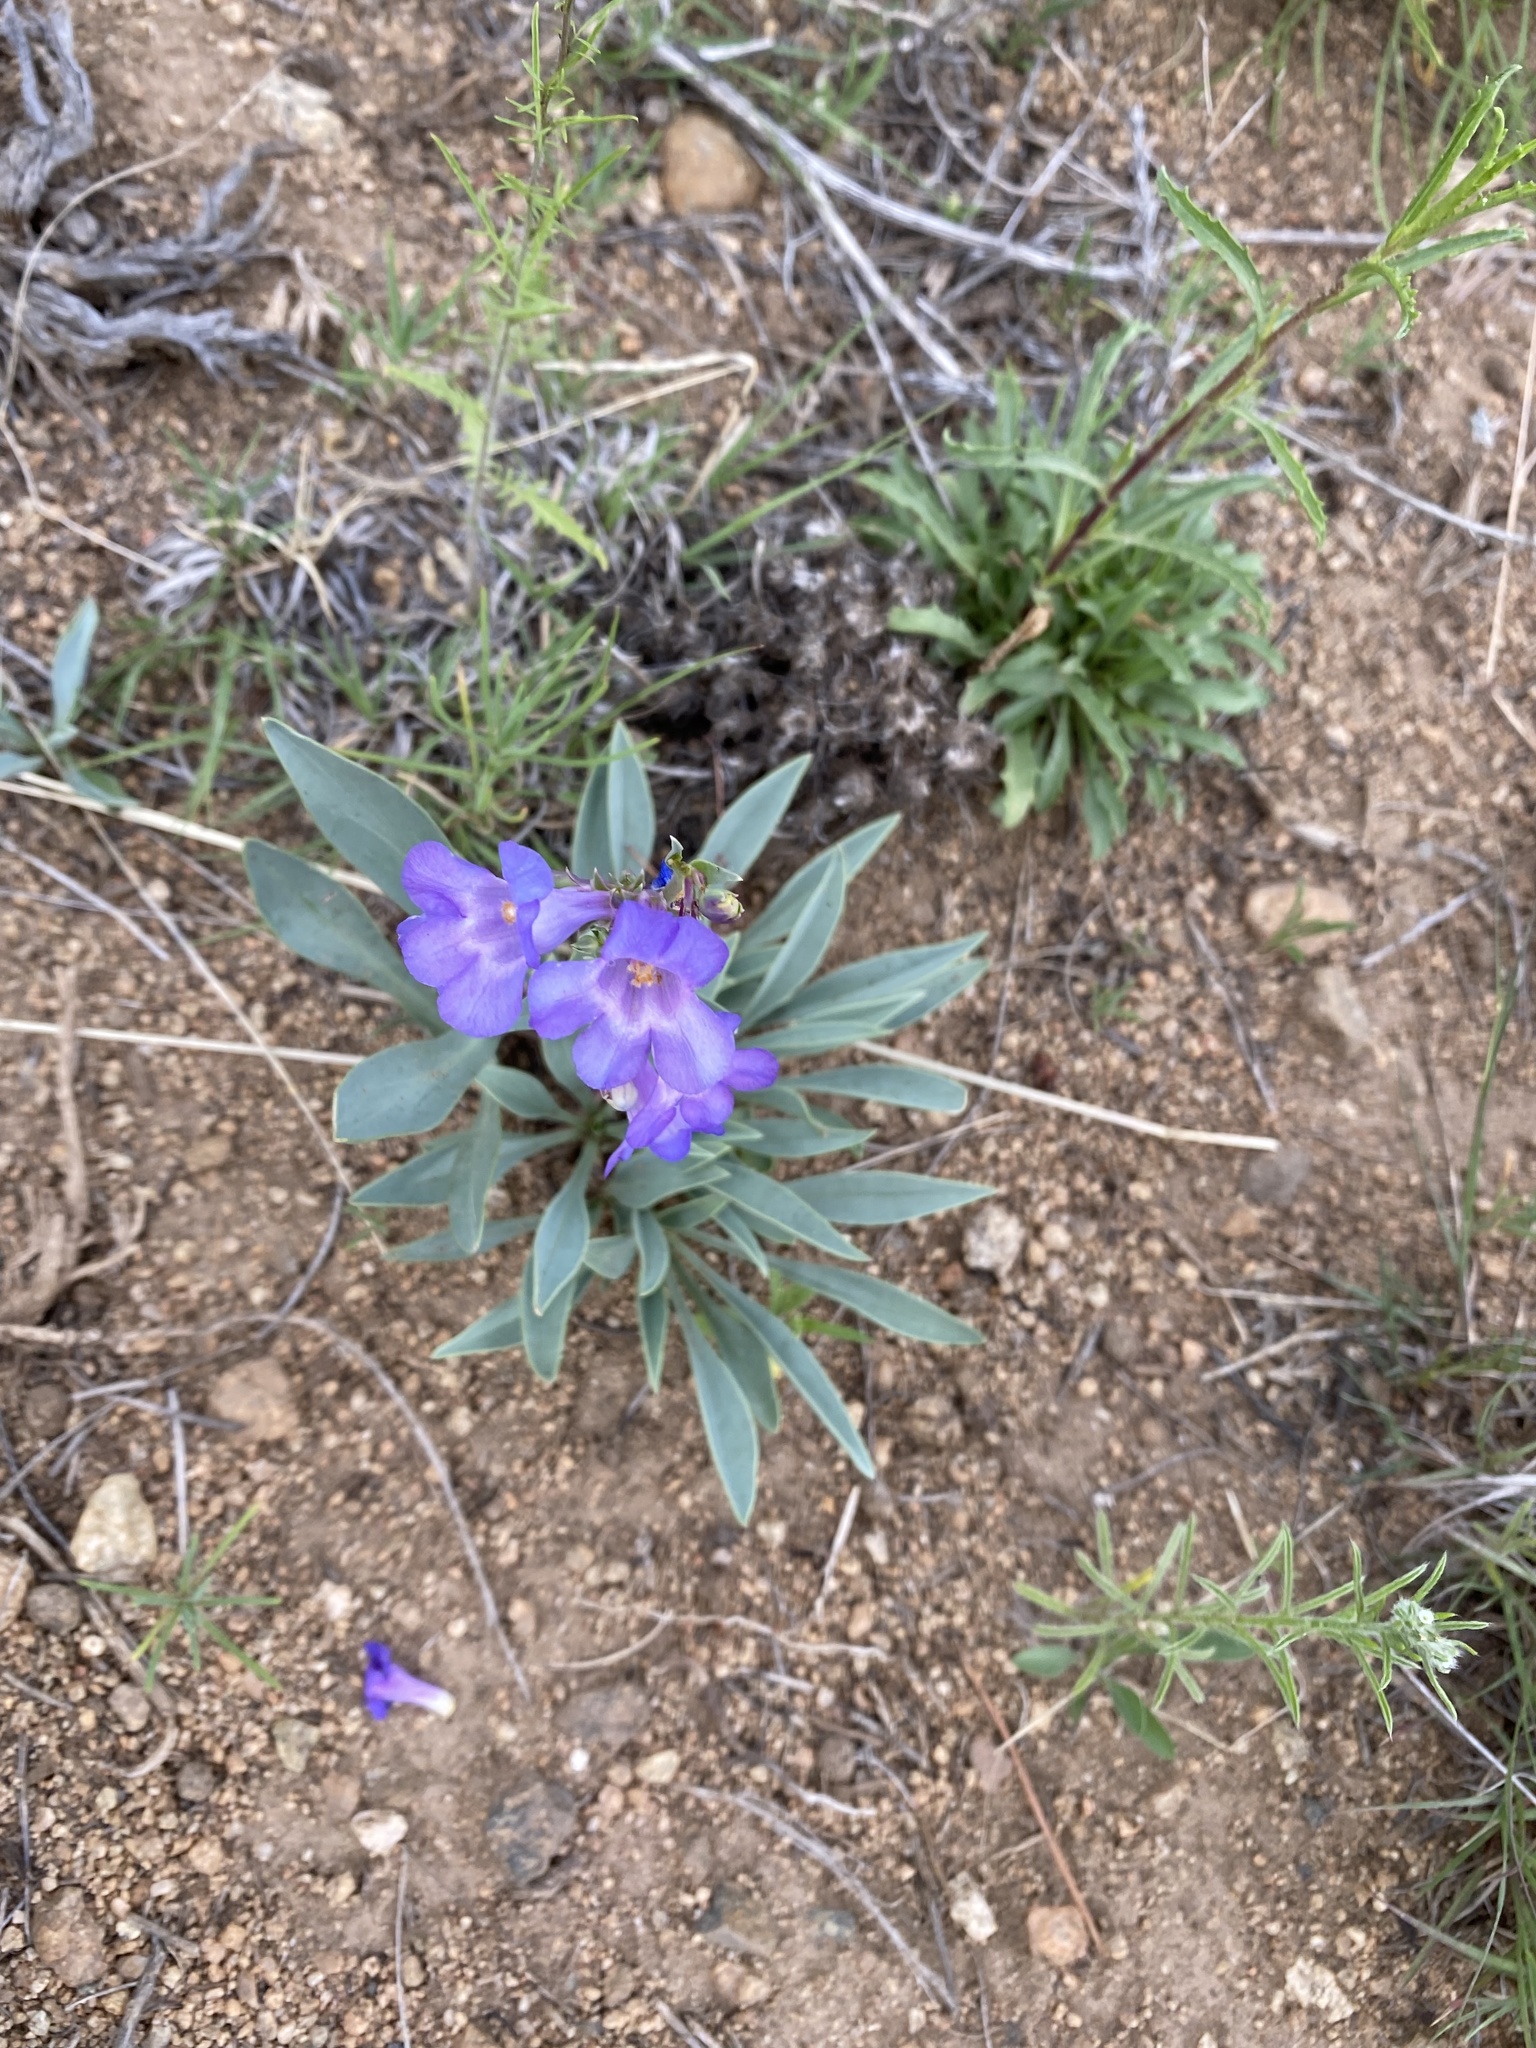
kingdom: Plantae
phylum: Tracheophyta
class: Magnoliopsida
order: Lamiales
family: Plantaginaceae
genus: Penstemon
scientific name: Penstemon secundiflorus
